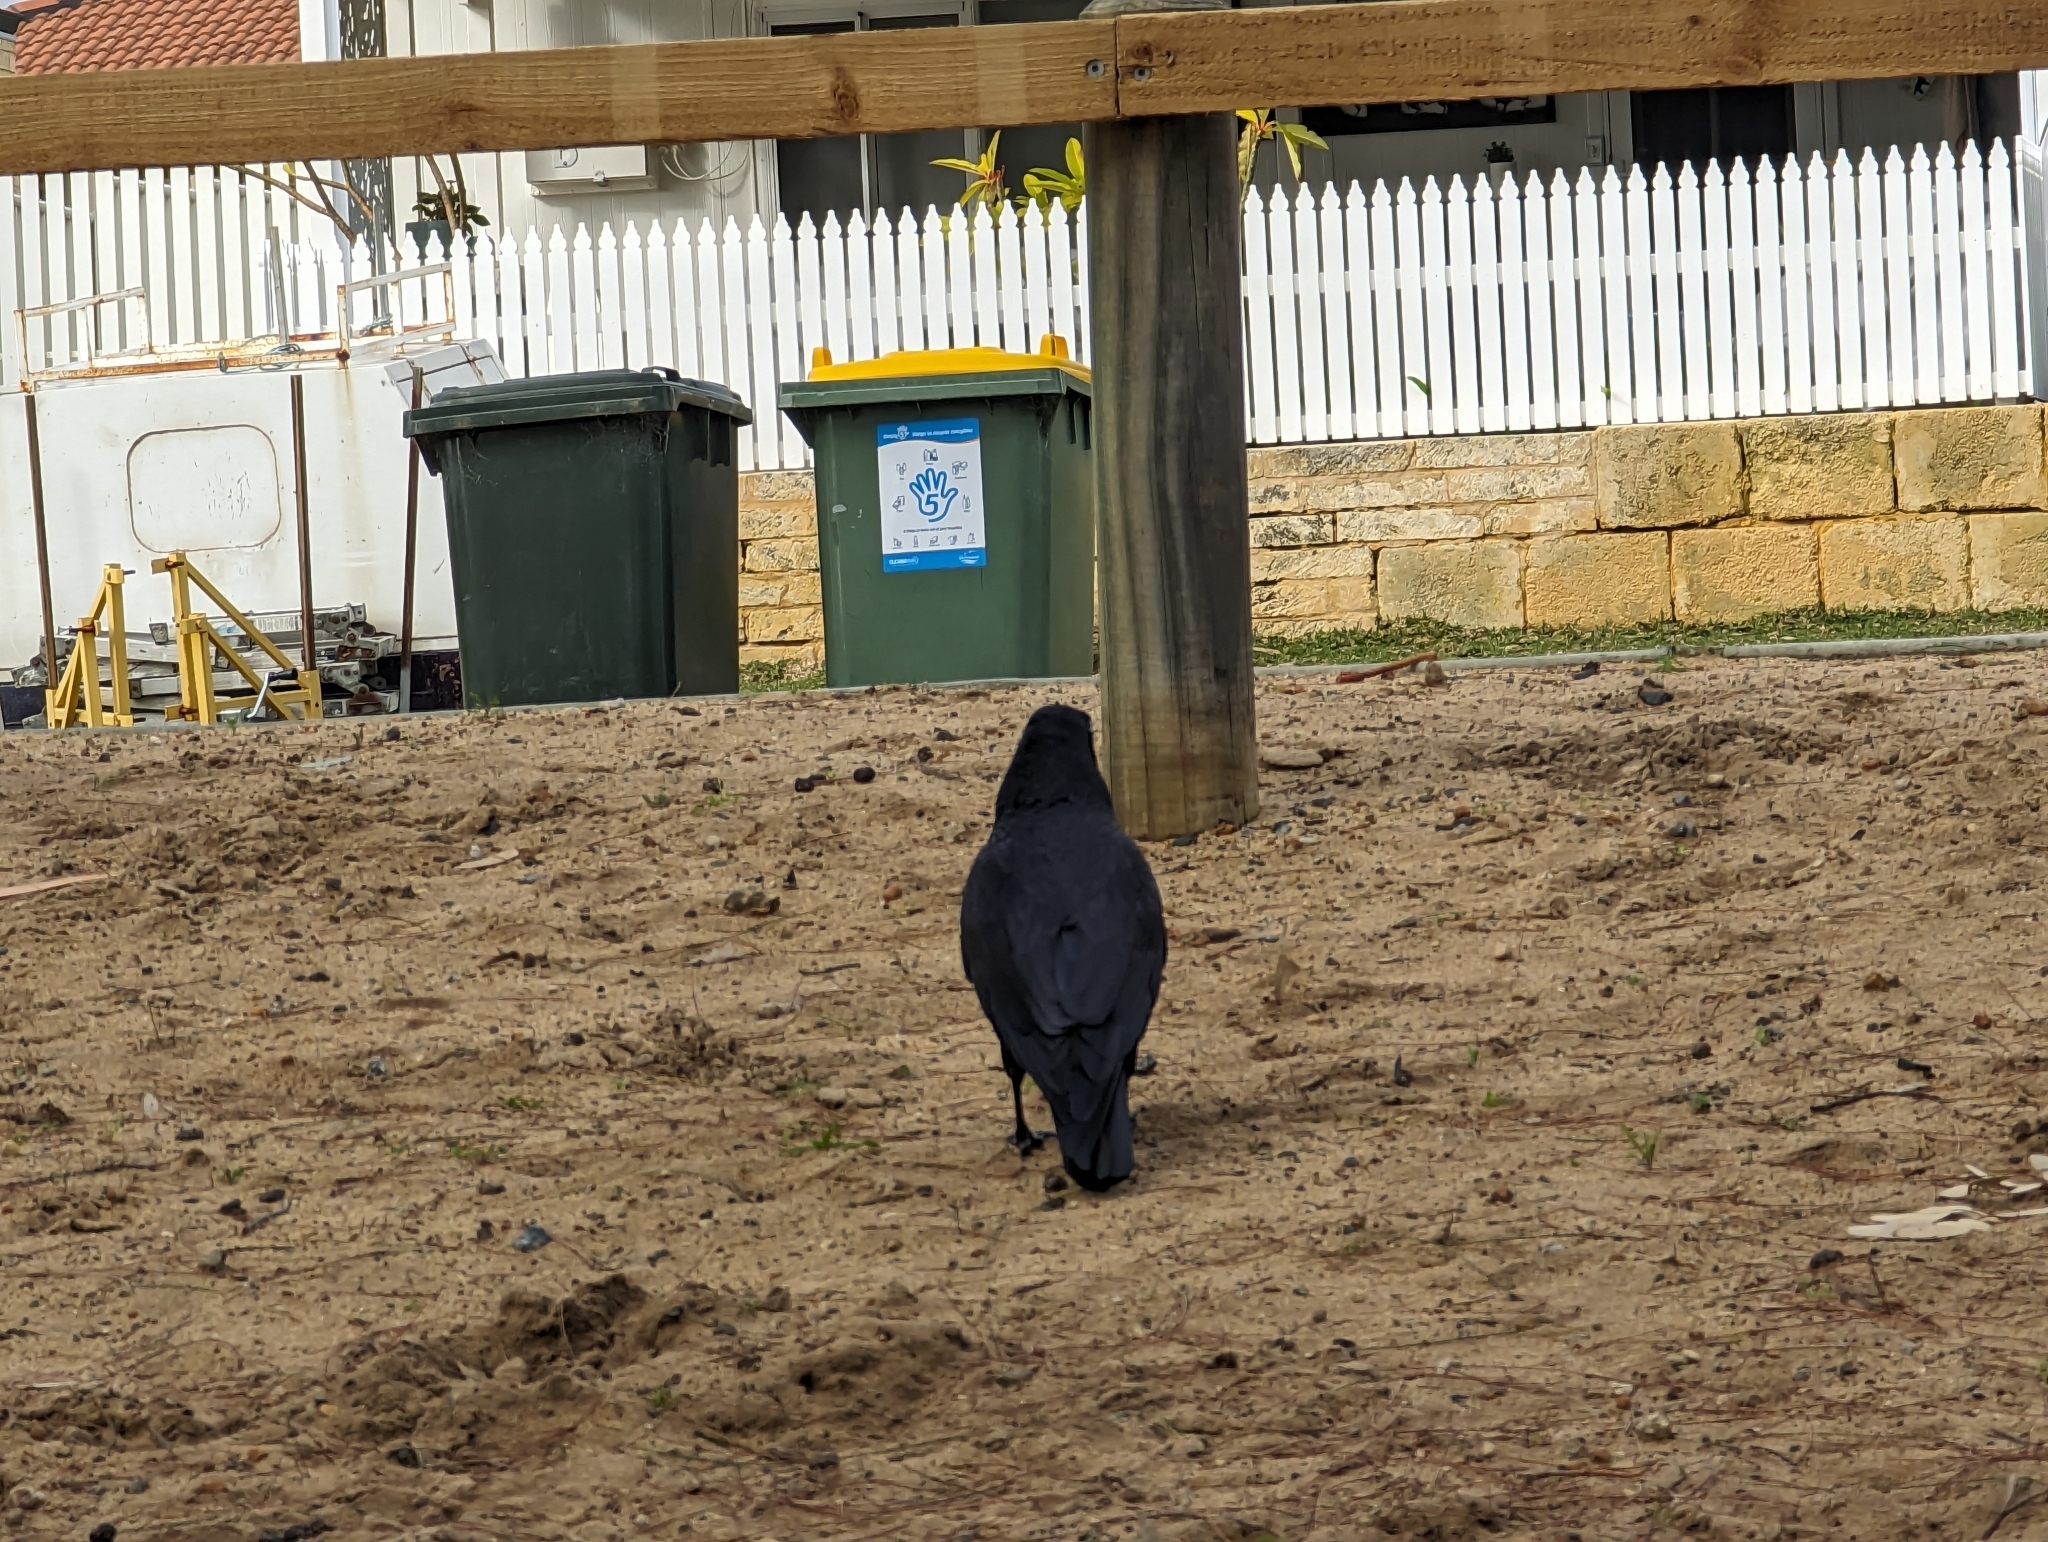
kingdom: Animalia
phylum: Chordata
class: Aves
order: Passeriformes
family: Corvidae
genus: Corvus
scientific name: Corvus coronoides
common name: Australian raven
